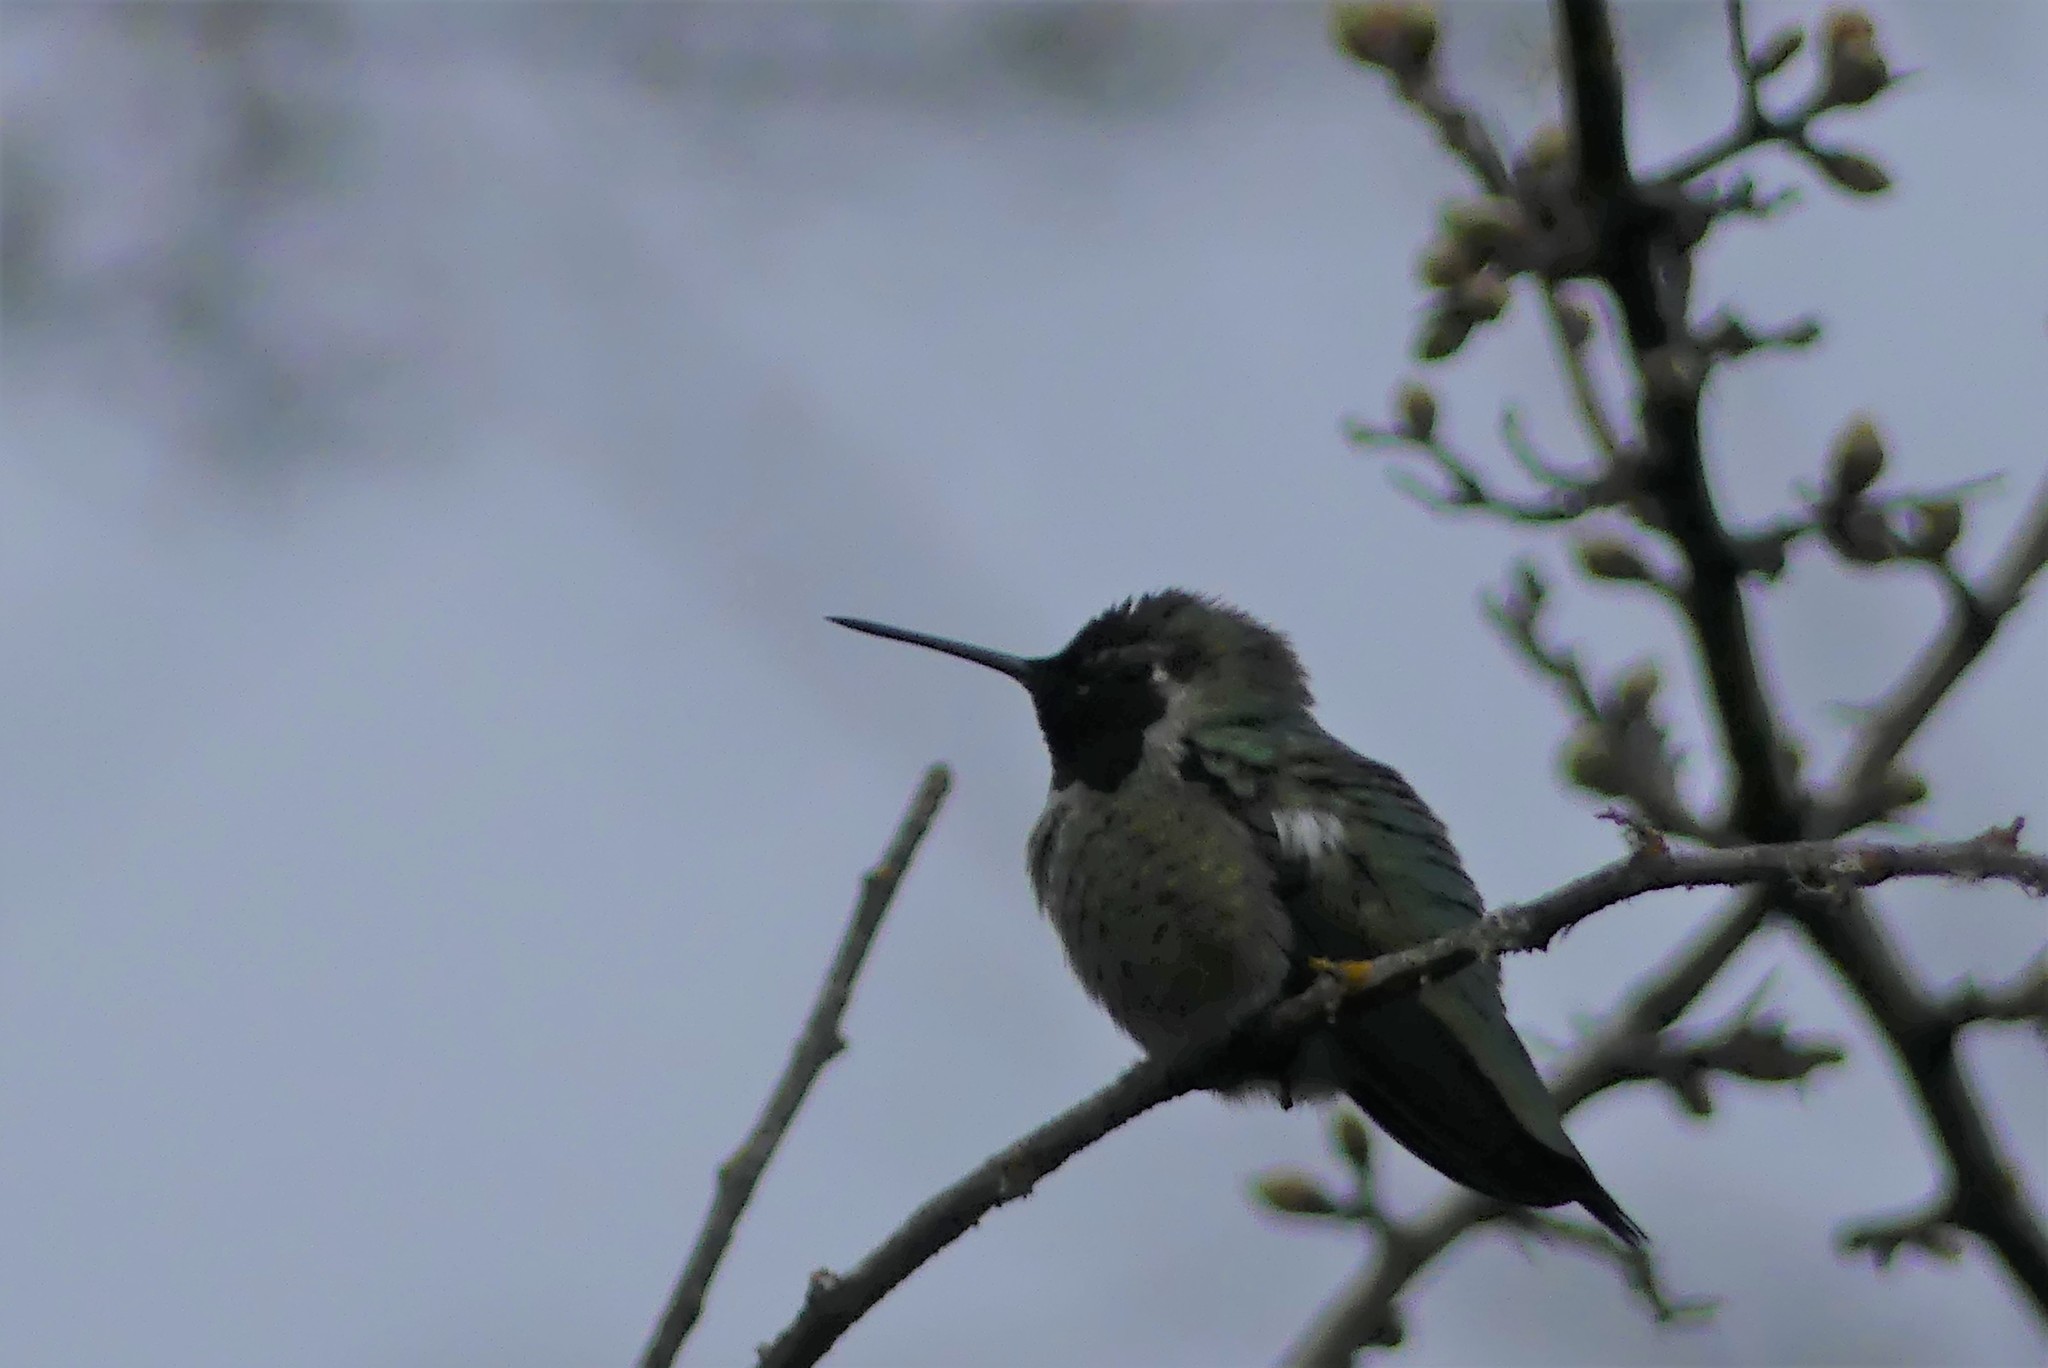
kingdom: Animalia
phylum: Chordata
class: Aves
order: Apodiformes
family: Trochilidae
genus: Calypte
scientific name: Calypte anna
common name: Anna's hummingbird
